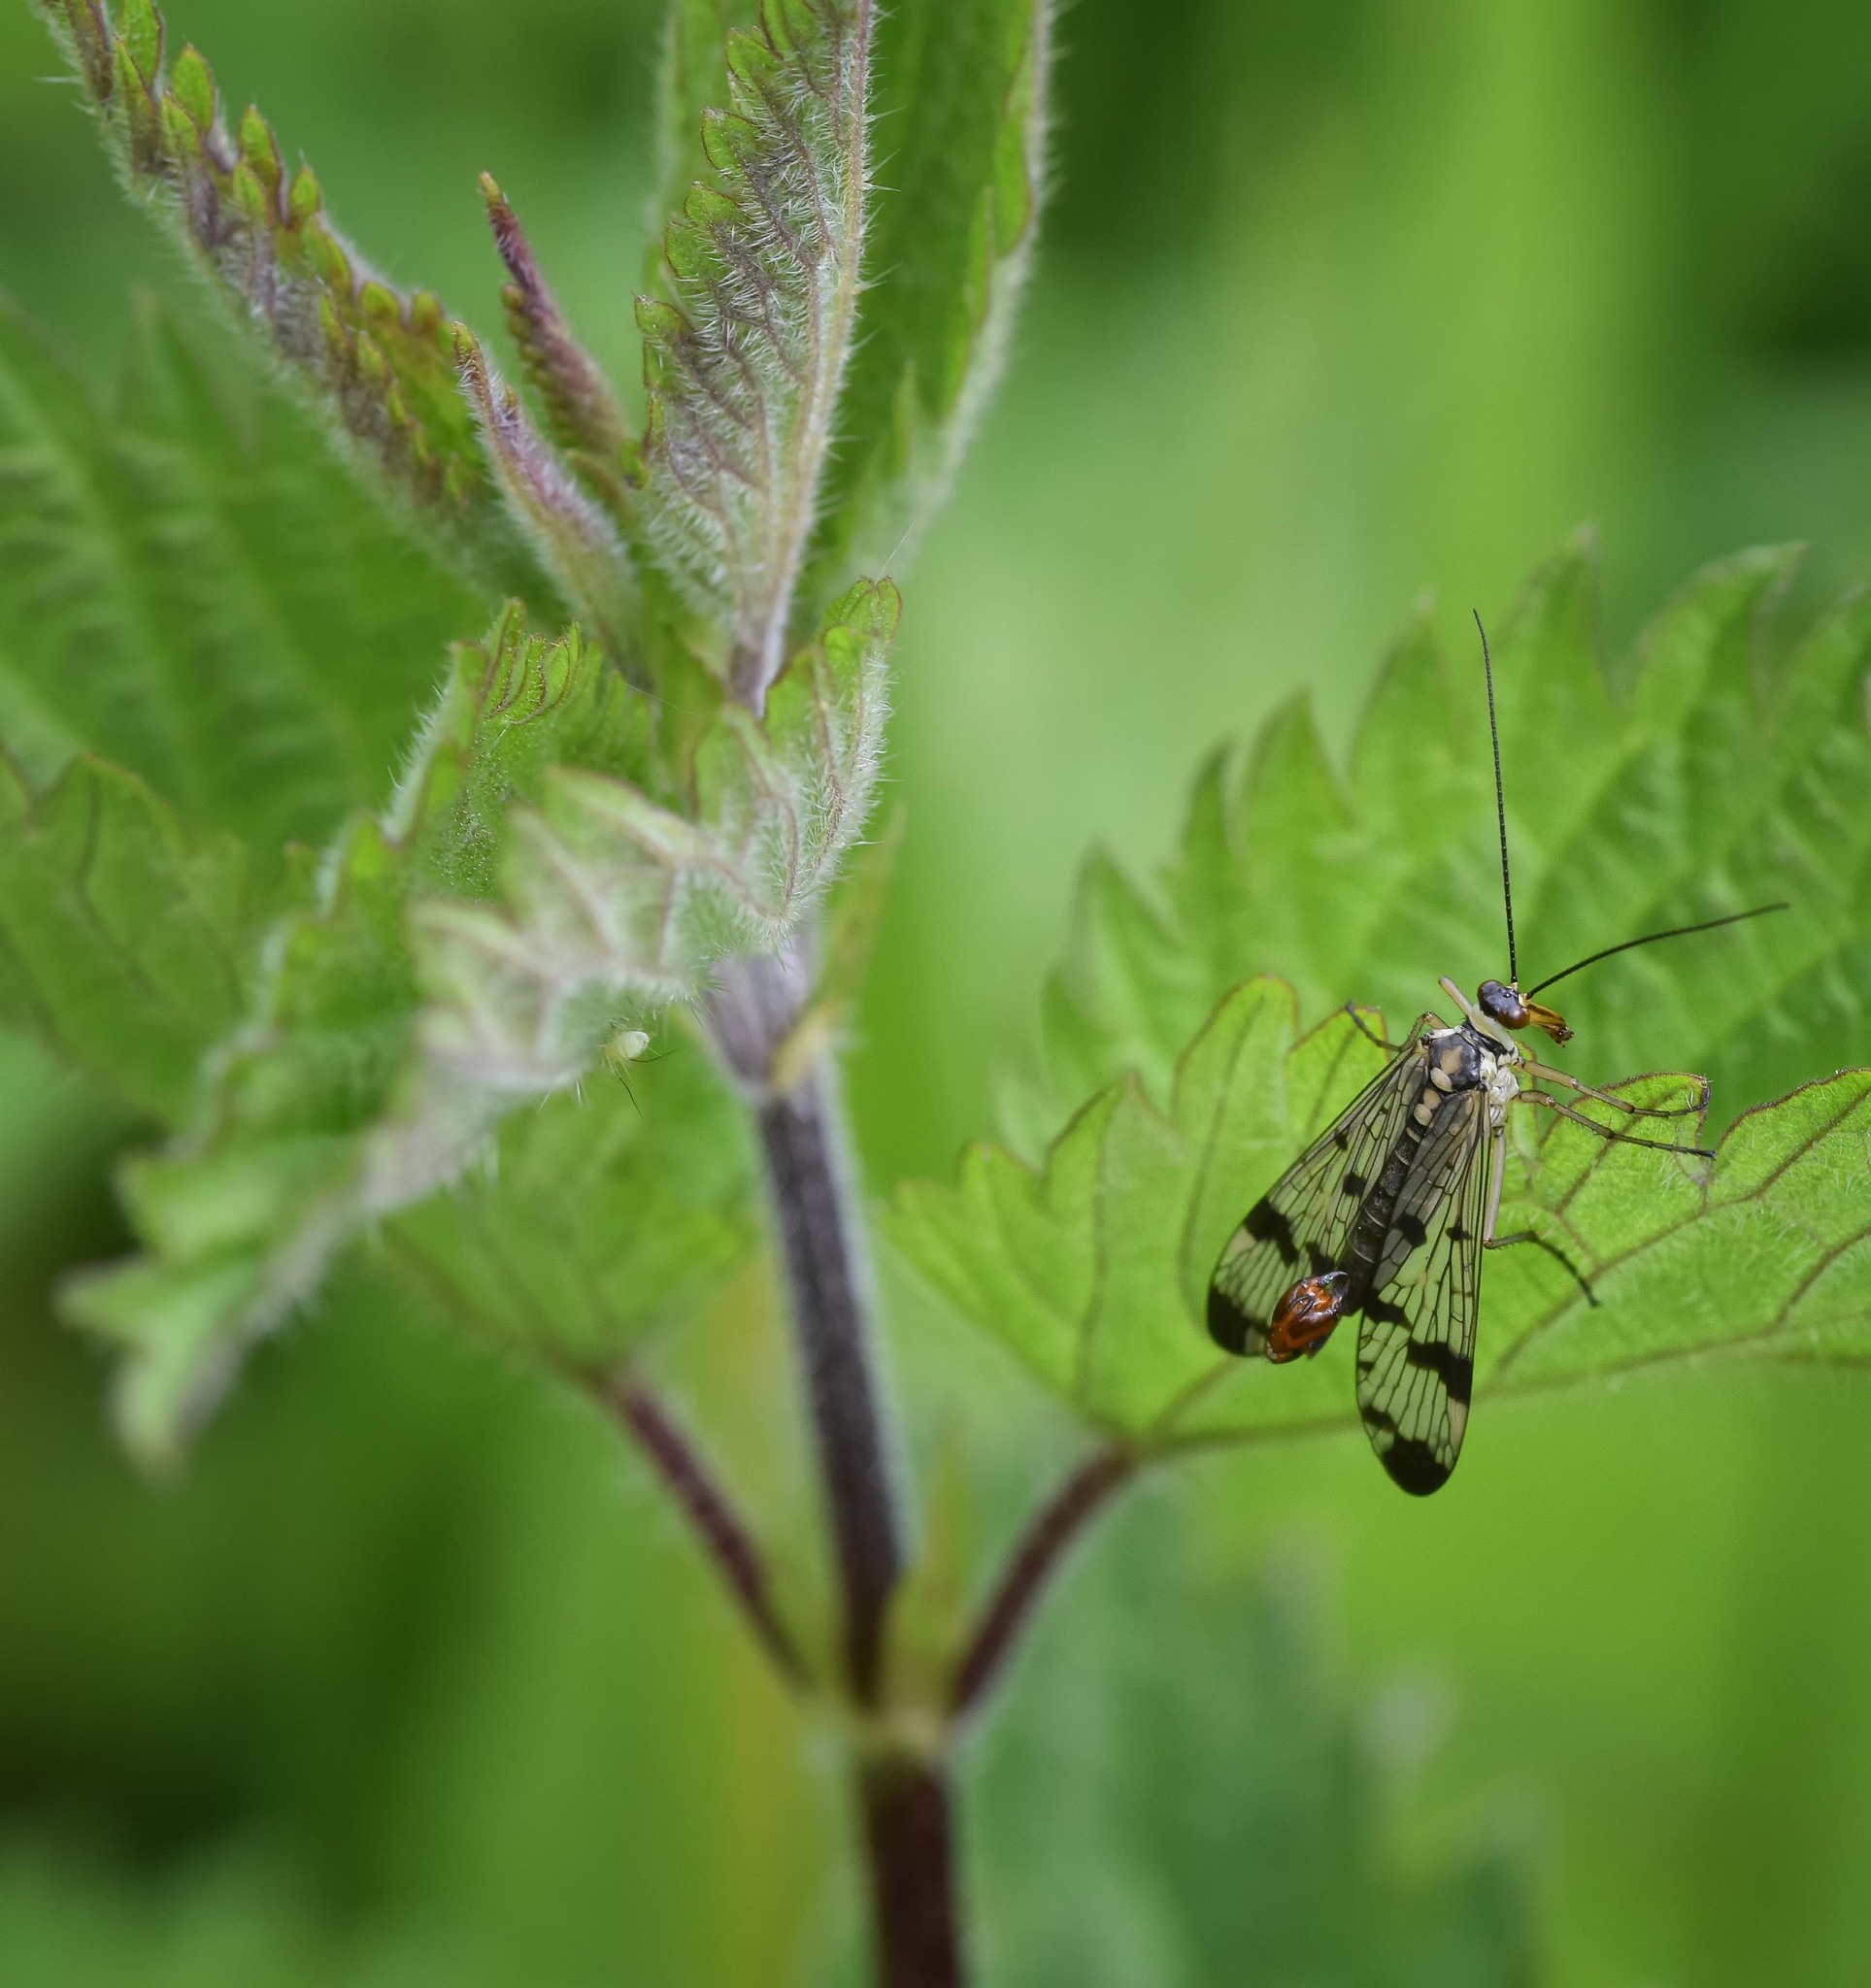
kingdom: Animalia
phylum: Arthropoda
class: Insecta
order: Mecoptera
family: Panorpidae
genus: Panorpa
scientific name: Panorpa communis
